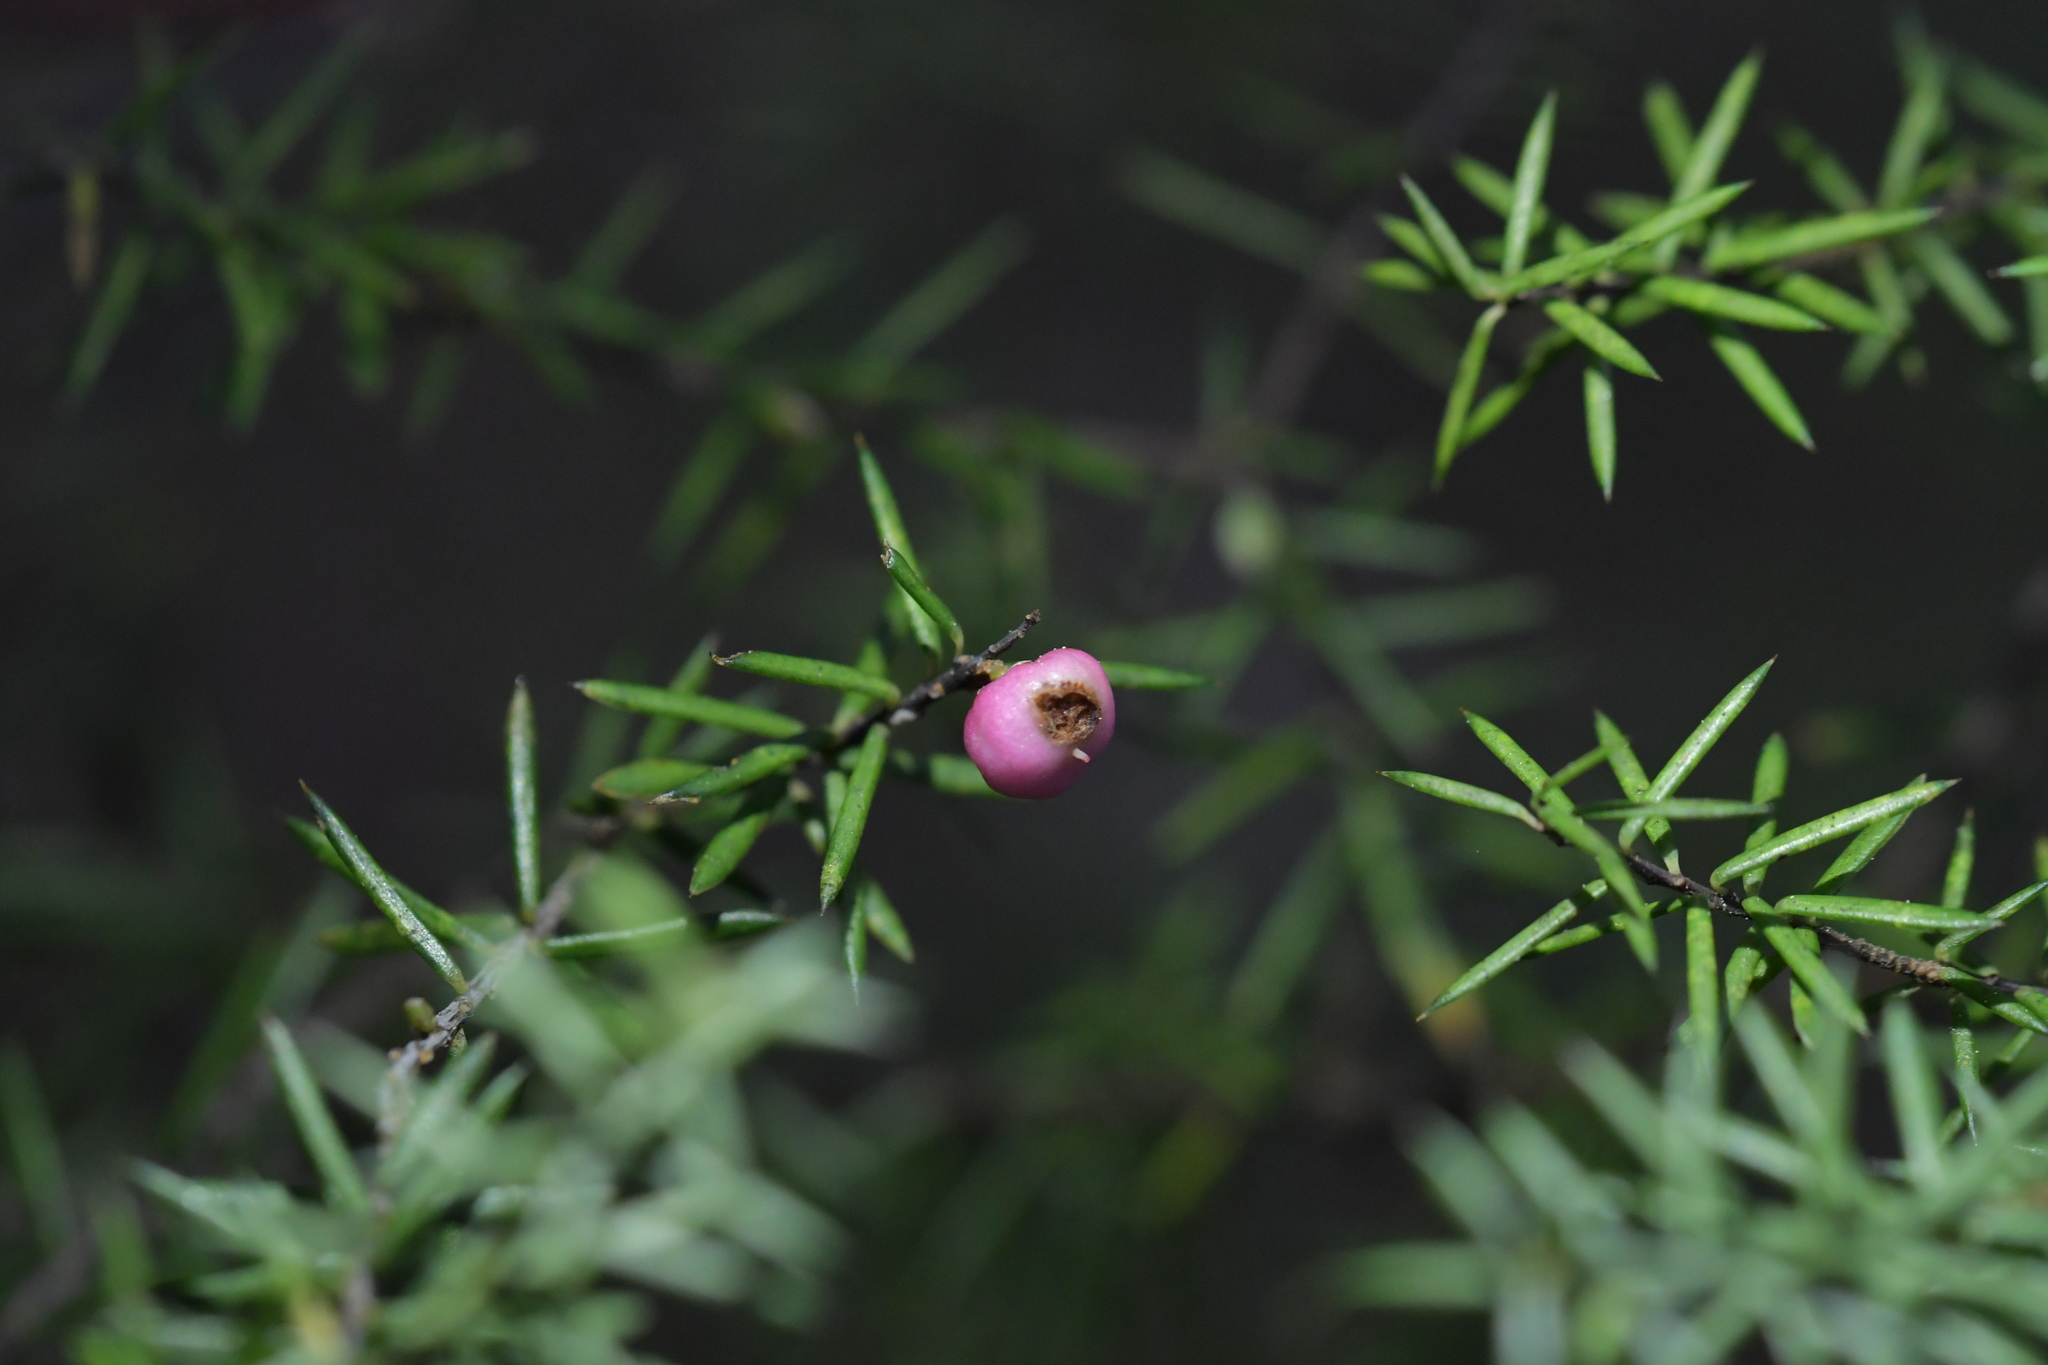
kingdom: Plantae
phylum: Tracheophyta
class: Magnoliopsida
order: Ericales
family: Ericaceae
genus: Leptecophylla
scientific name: Leptecophylla juniperina
